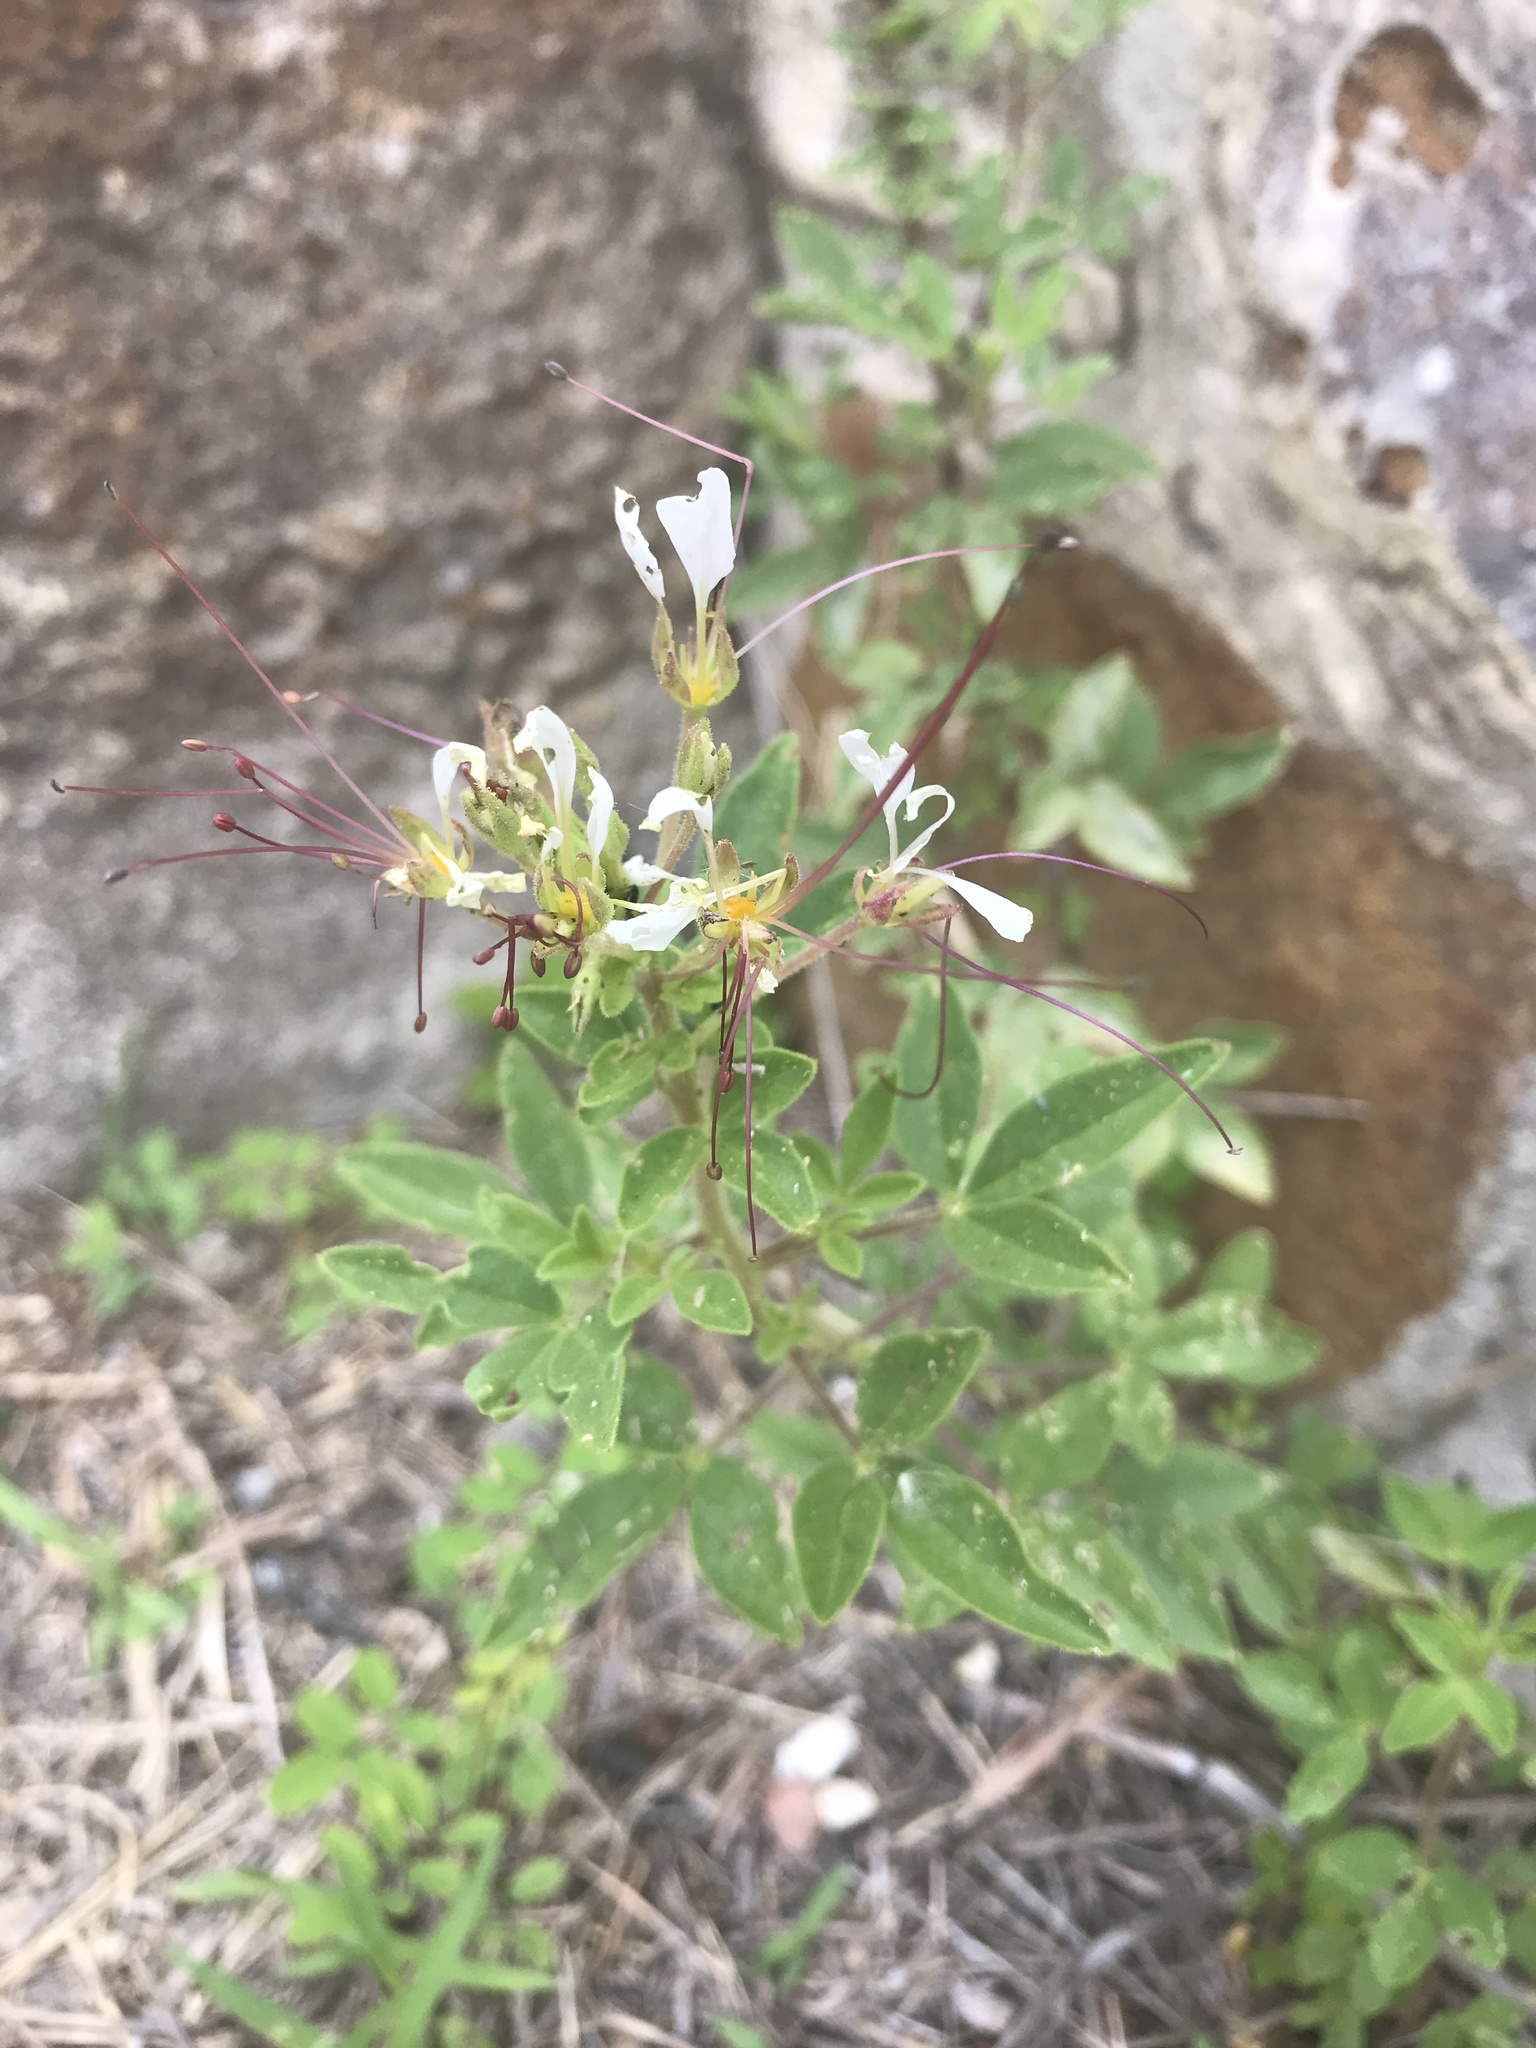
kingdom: Plantae
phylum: Tracheophyta
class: Magnoliopsida
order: Brassicales
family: Cleomaceae
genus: Polanisia
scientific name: Polanisia dodecandra
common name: Clammyweed
